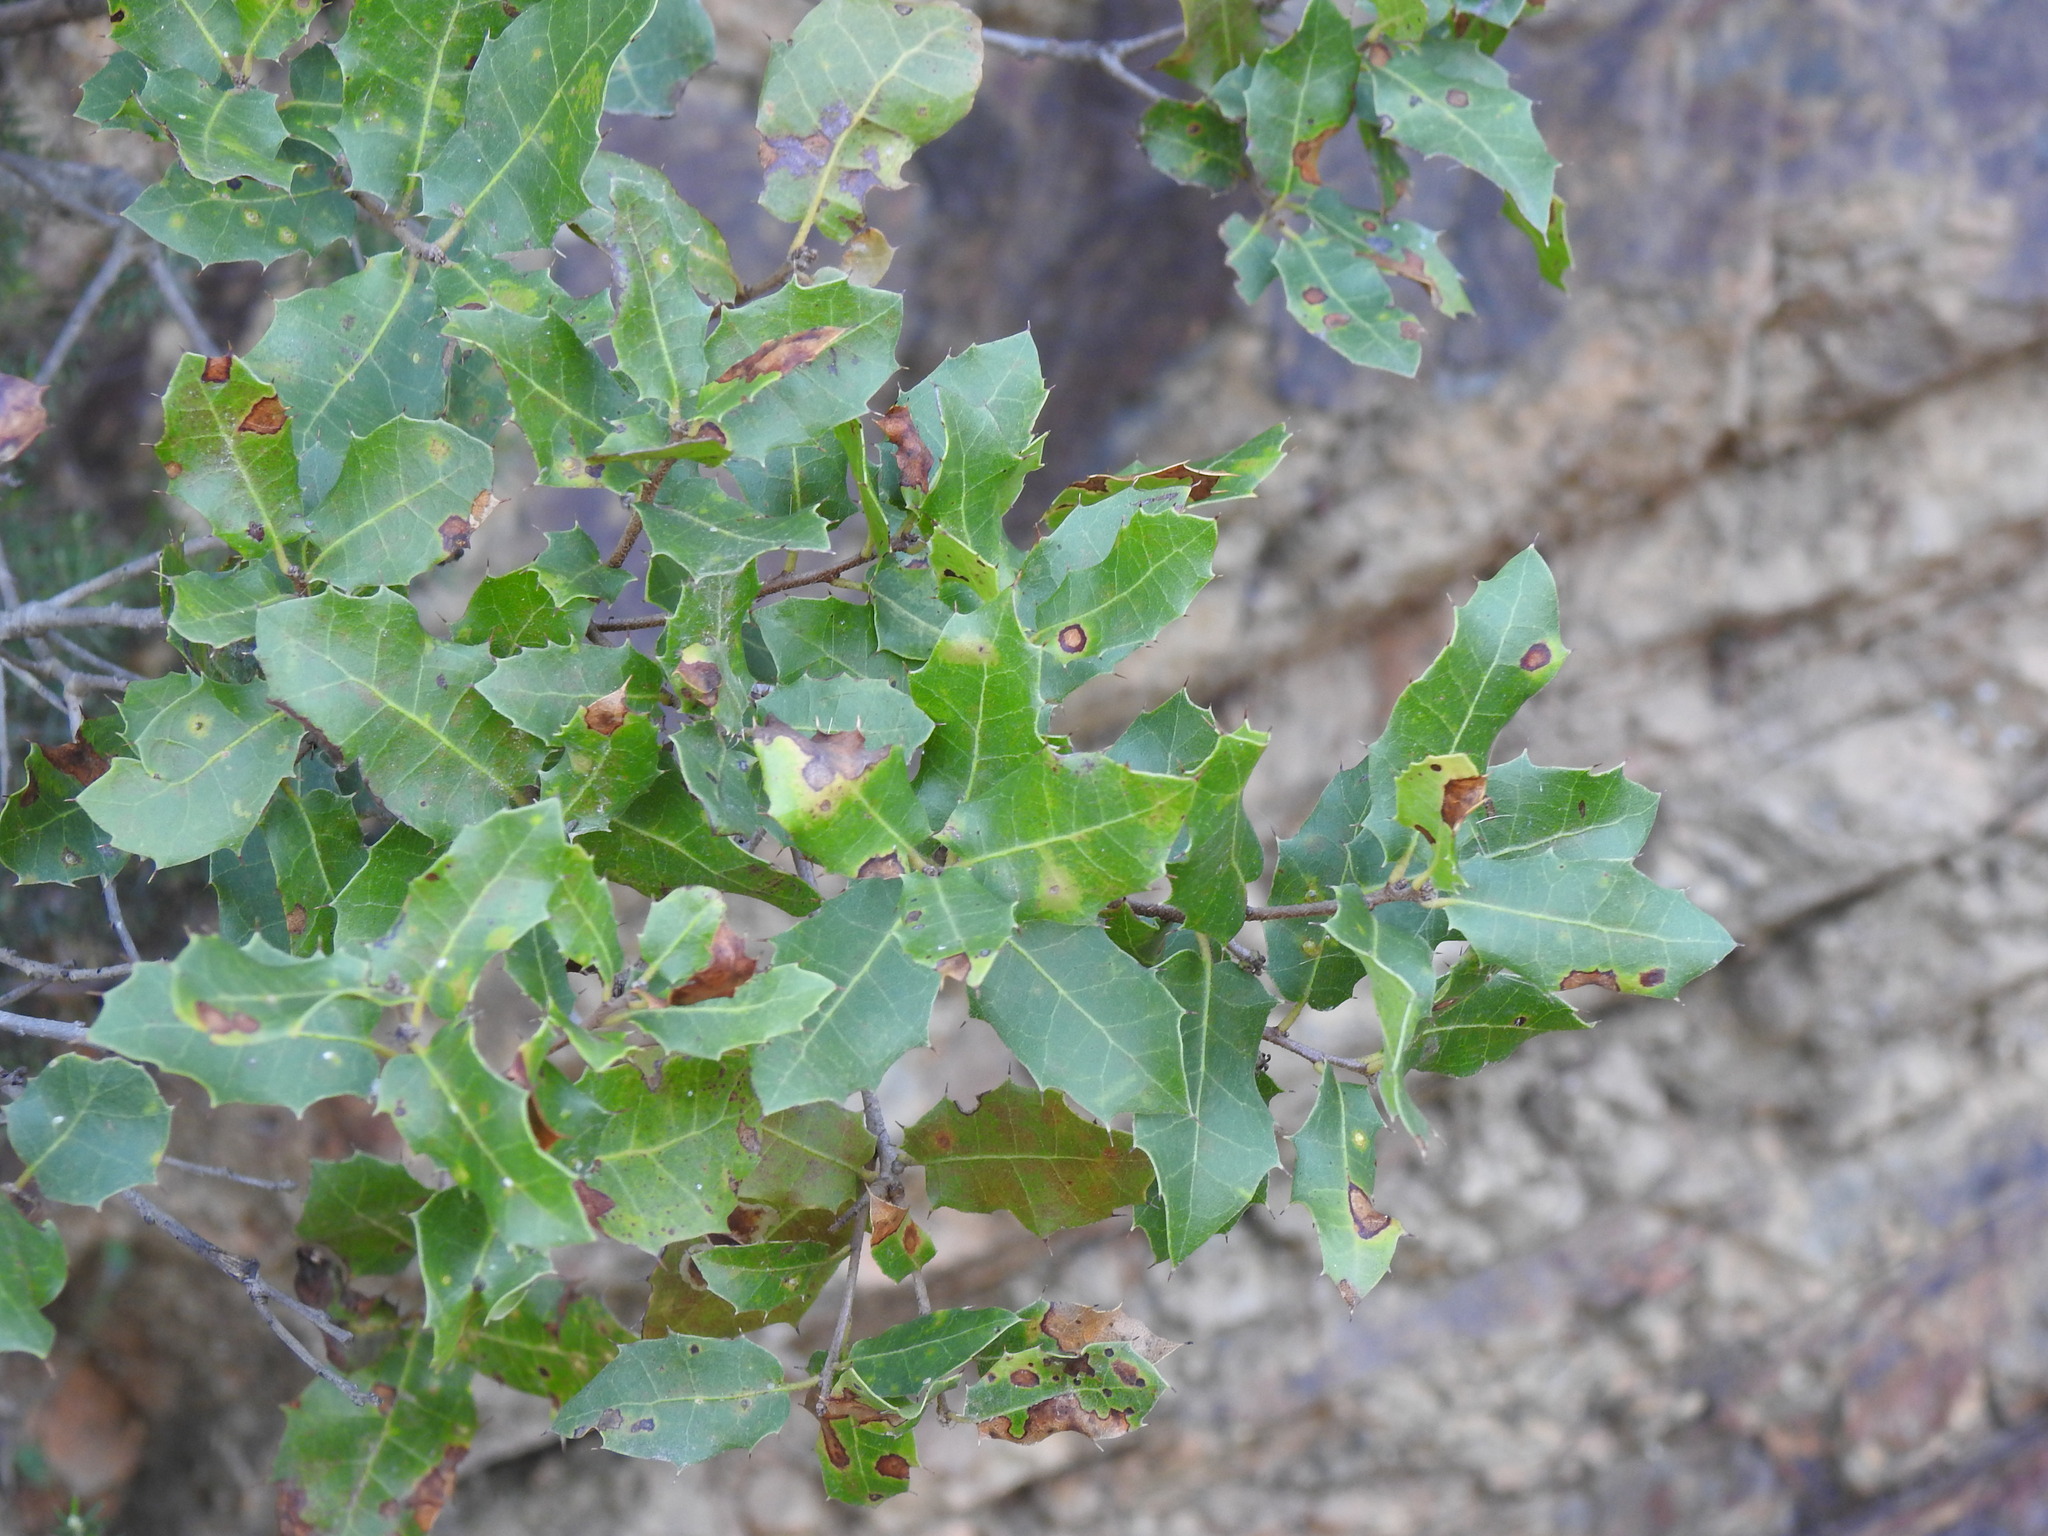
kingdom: Plantae
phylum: Tracheophyta
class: Magnoliopsida
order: Fagales
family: Fagaceae
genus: Quercus
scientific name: Quercus coccifera
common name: Kermes oak
